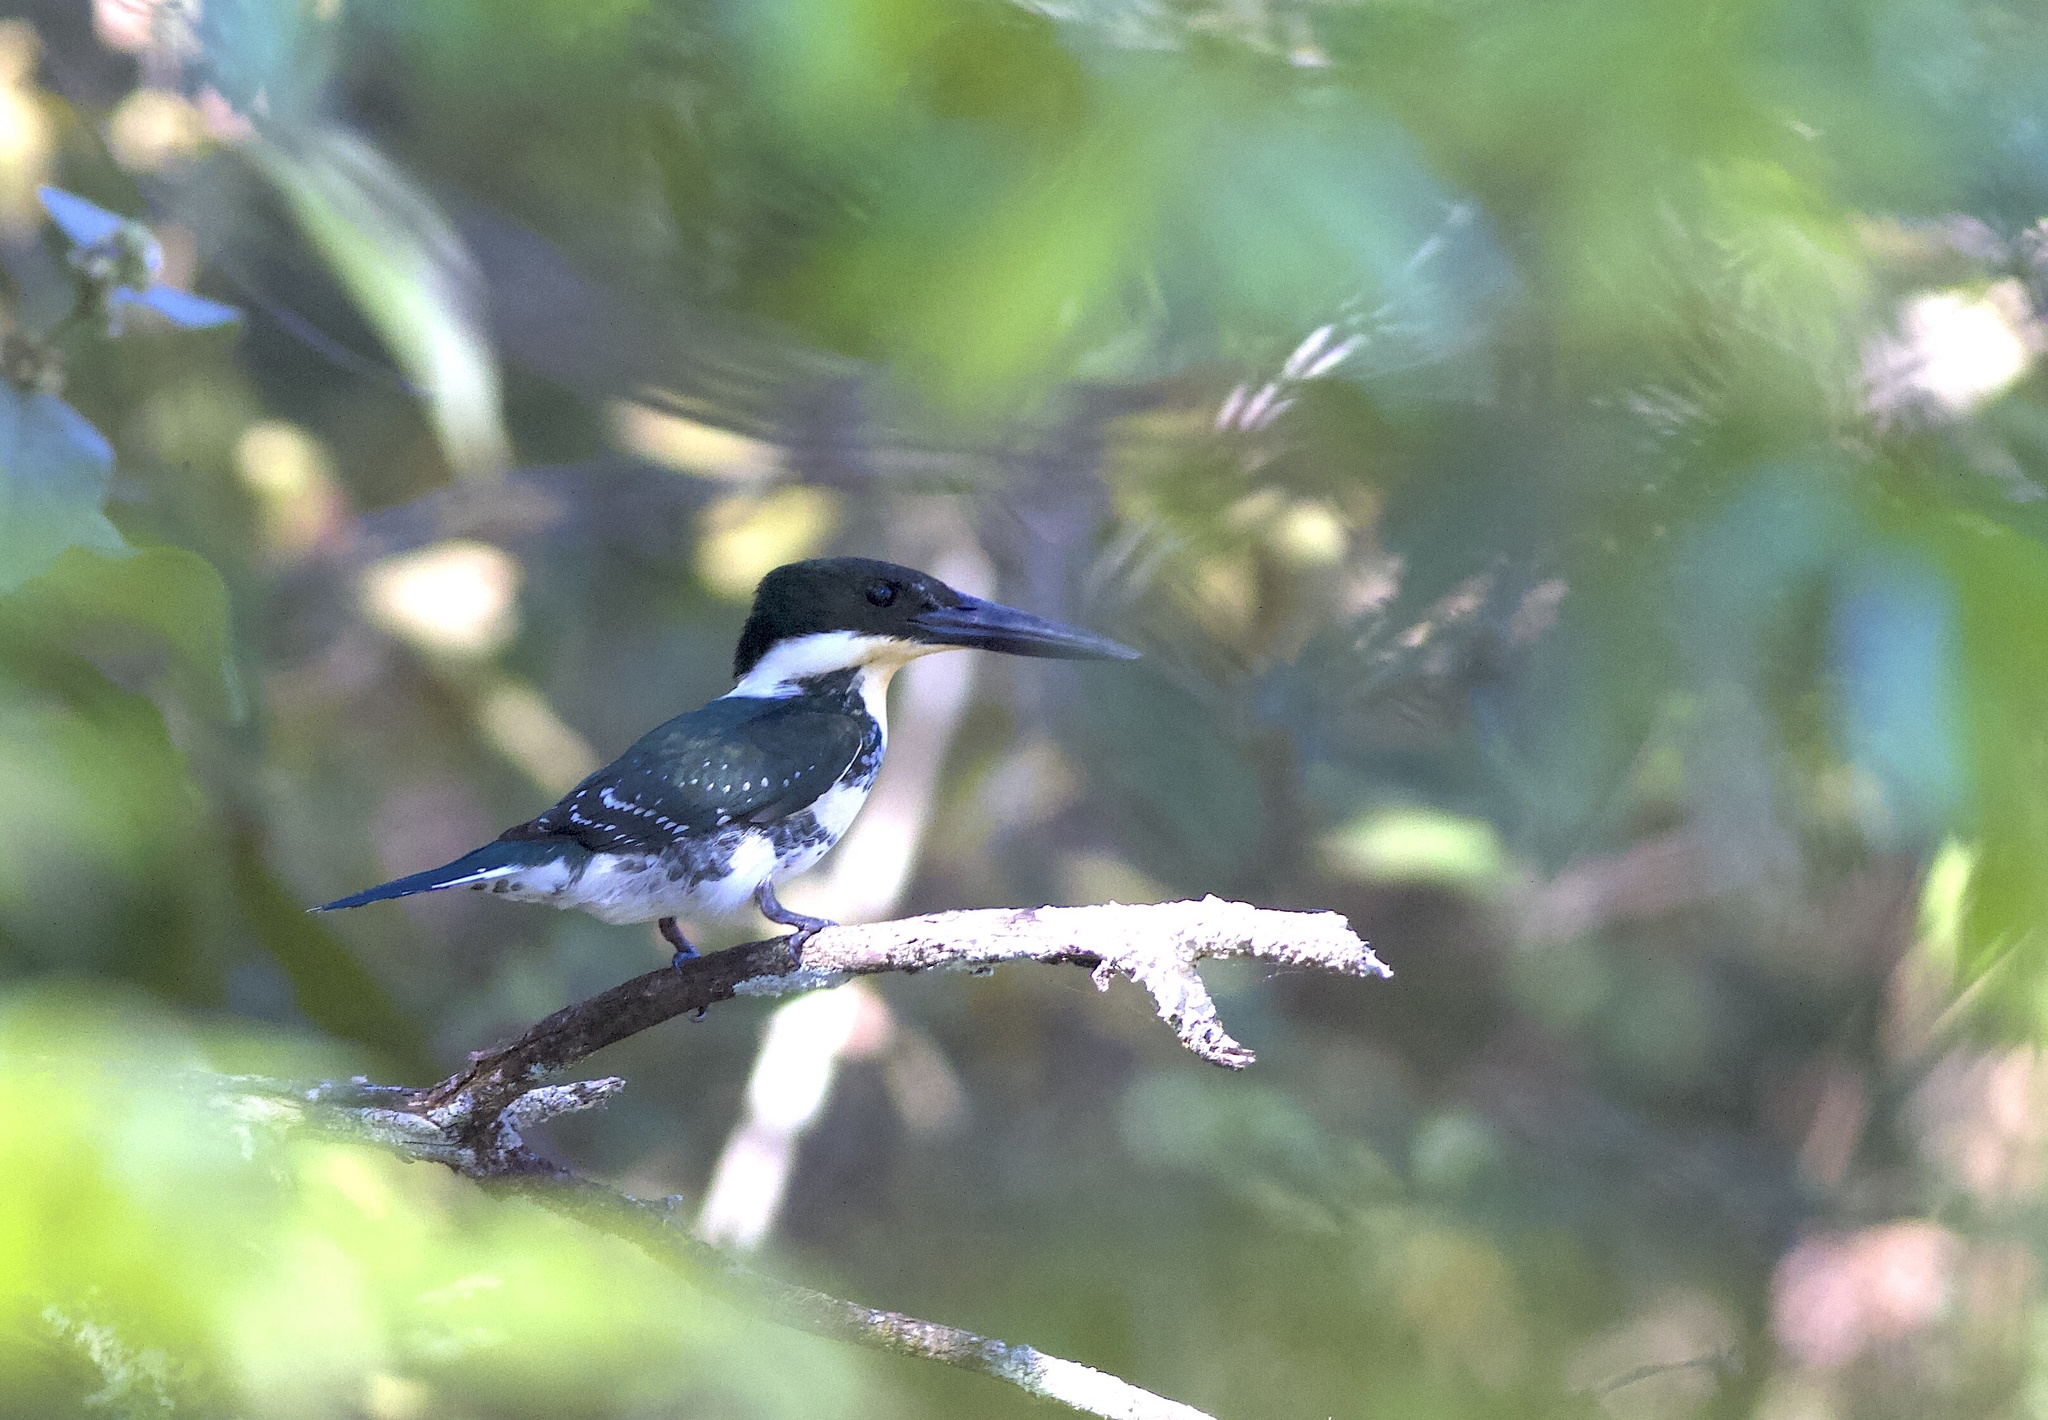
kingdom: Animalia
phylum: Chordata
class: Aves
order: Coraciiformes
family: Alcedinidae
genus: Chloroceryle
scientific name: Chloroceryle americana
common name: Green kingfisher
